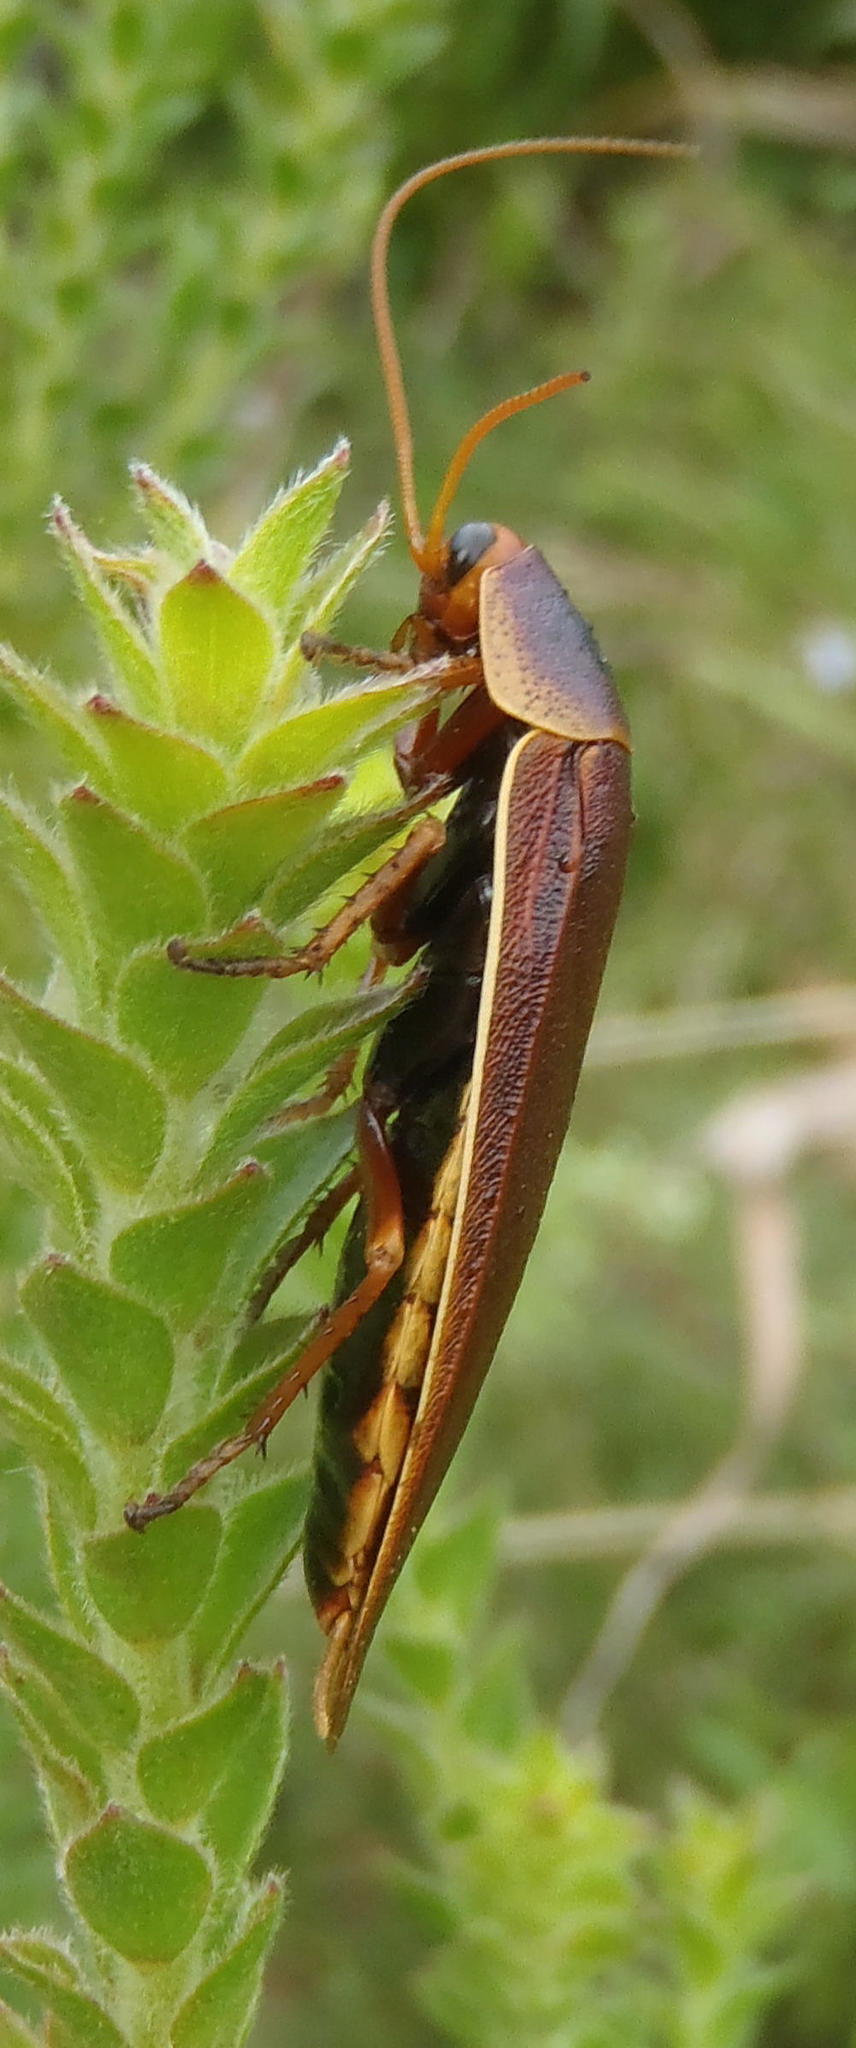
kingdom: Animalia
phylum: Arthropoda
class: Insecta
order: Blattodea
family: Blaberidae
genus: Aptera
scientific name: Aptera fusca
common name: Cape mountain cockroach
